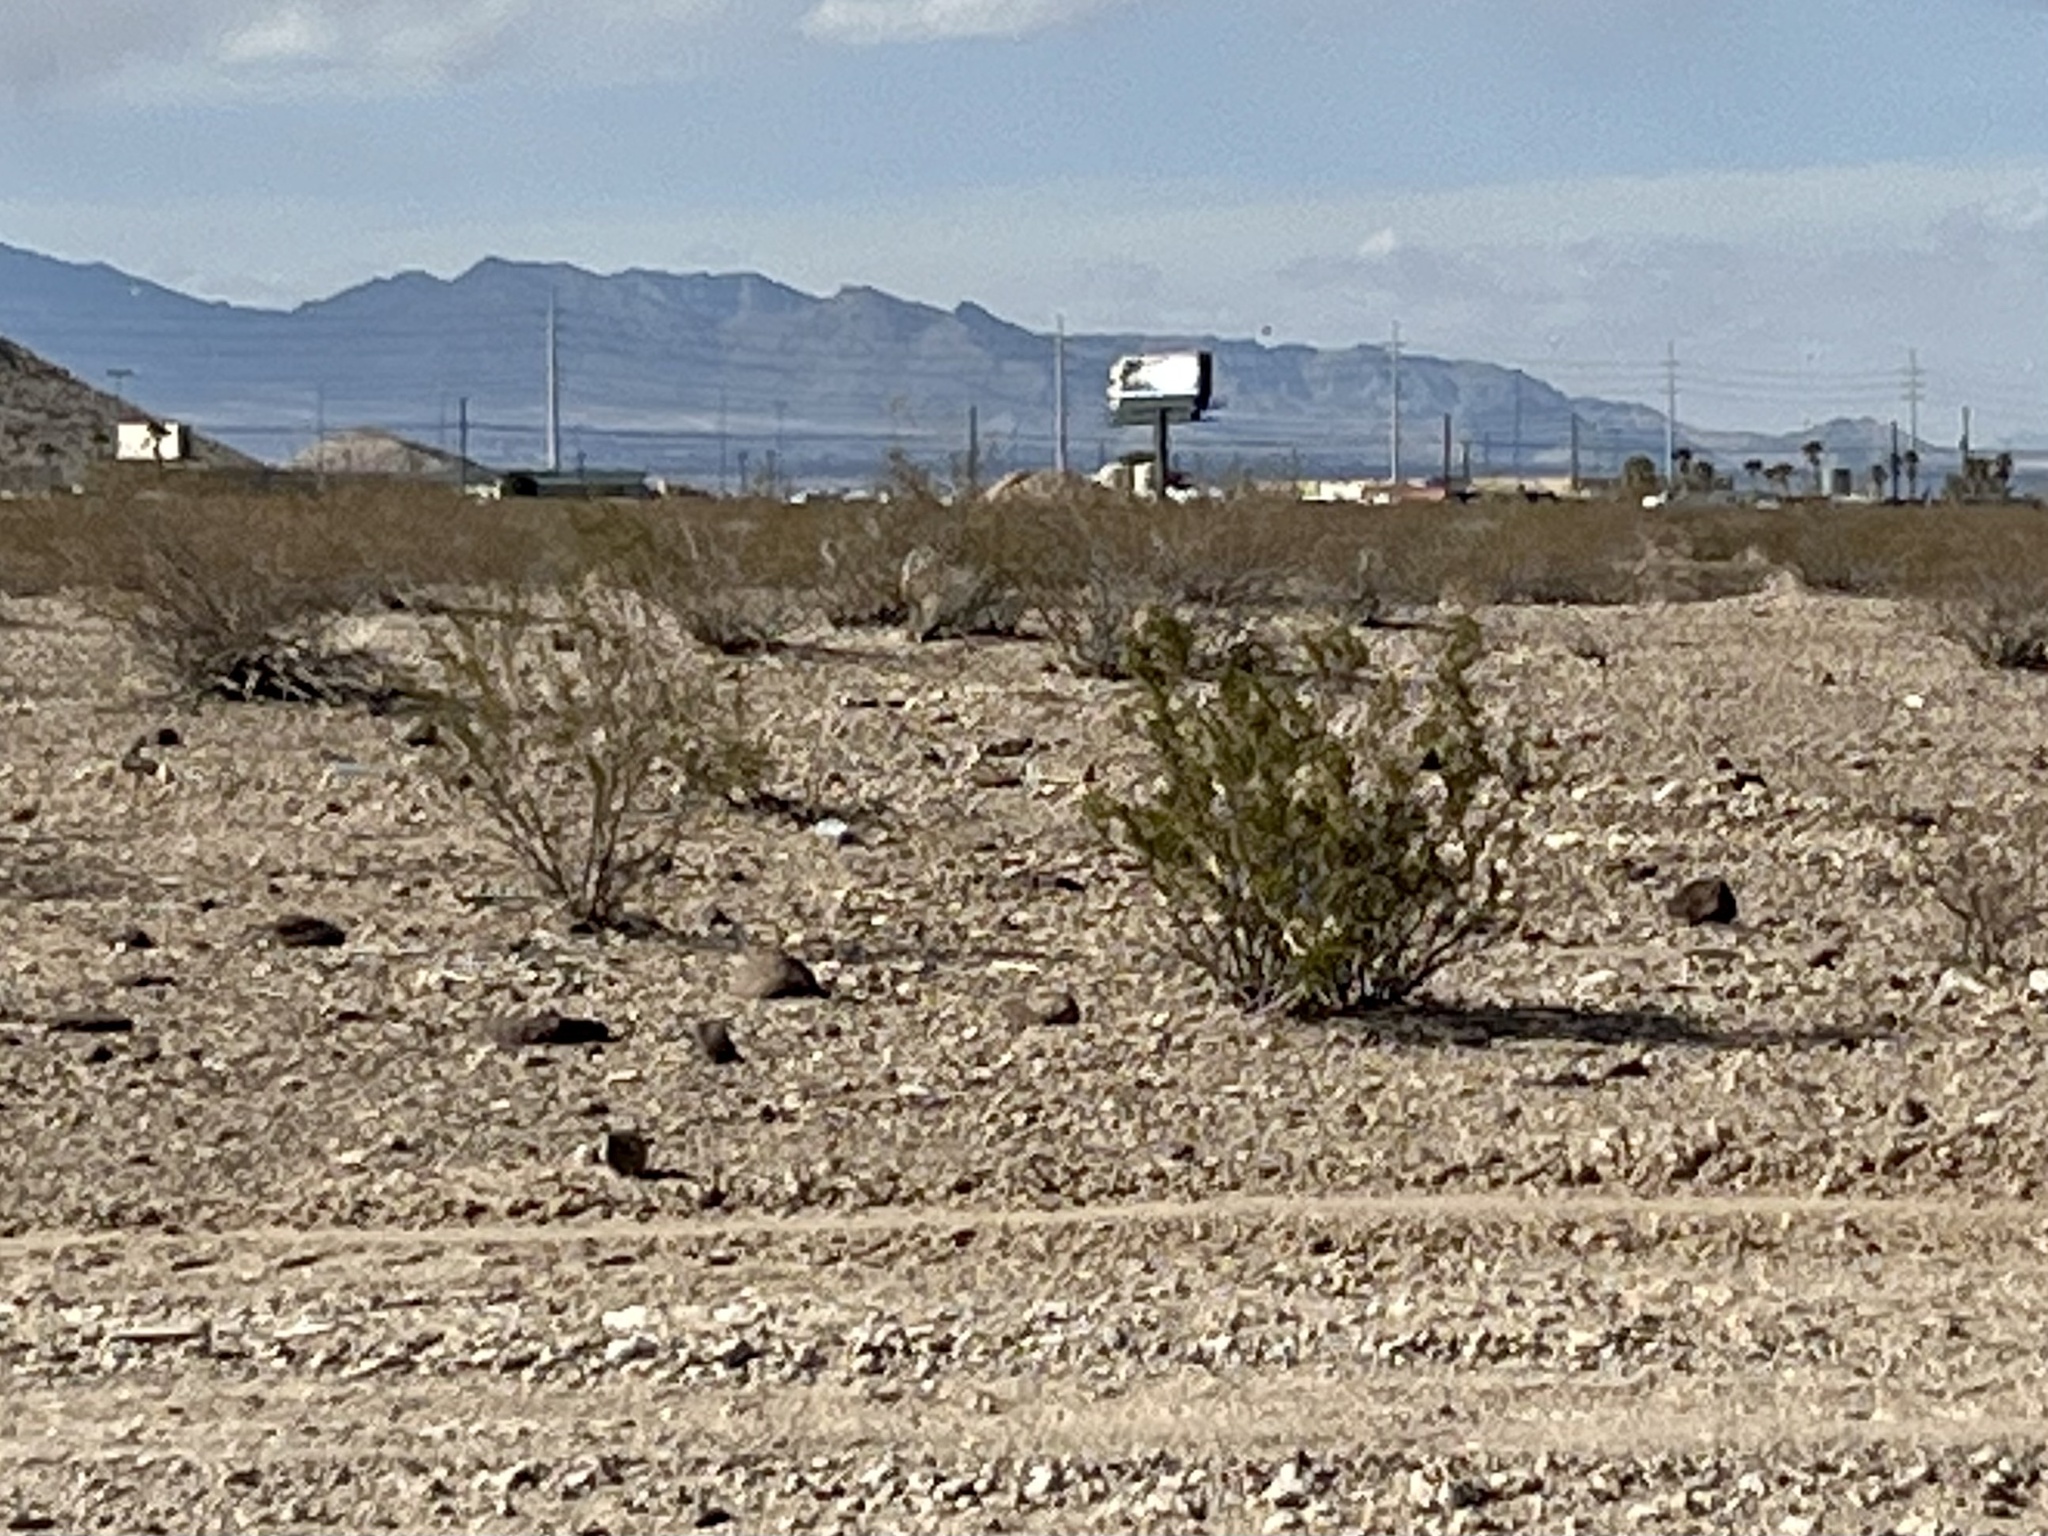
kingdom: Plantae
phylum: Tracheophyta
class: Magnoliopsida
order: Zygophyllales
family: Zygophyllaceae
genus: Larrea
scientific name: Larrea tridentata
